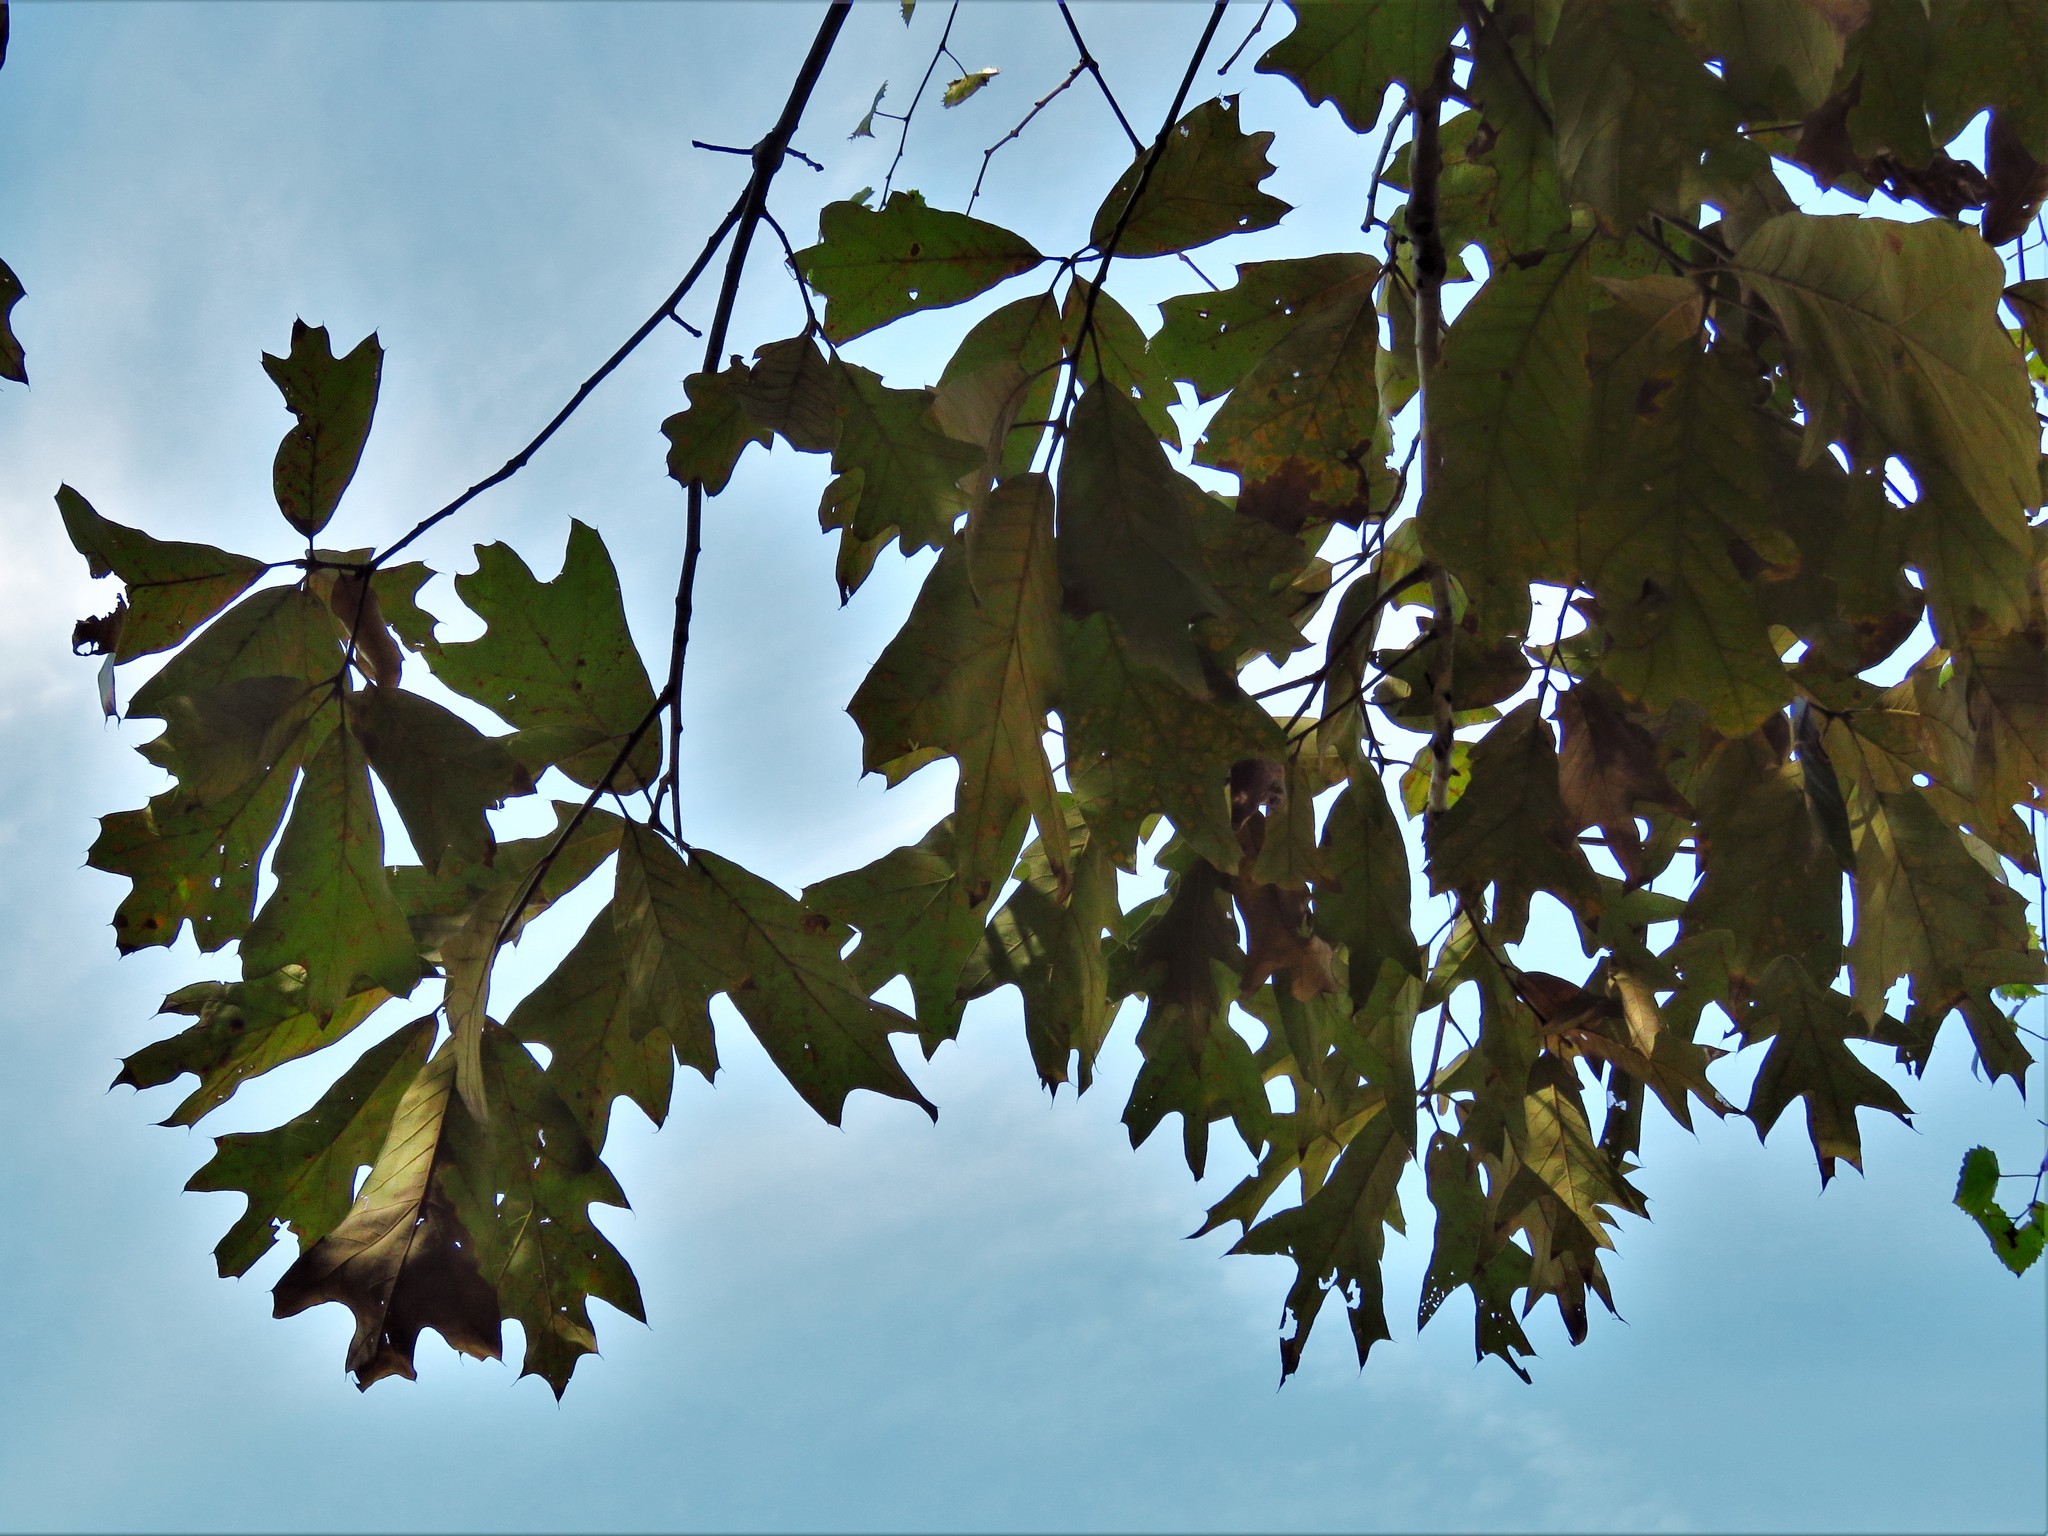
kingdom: Plantae
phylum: Tracheophyta
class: Magnoliopsida
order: Fagales
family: Fagaceae
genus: Quercus
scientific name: Quercus falcata
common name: Southern red oak
